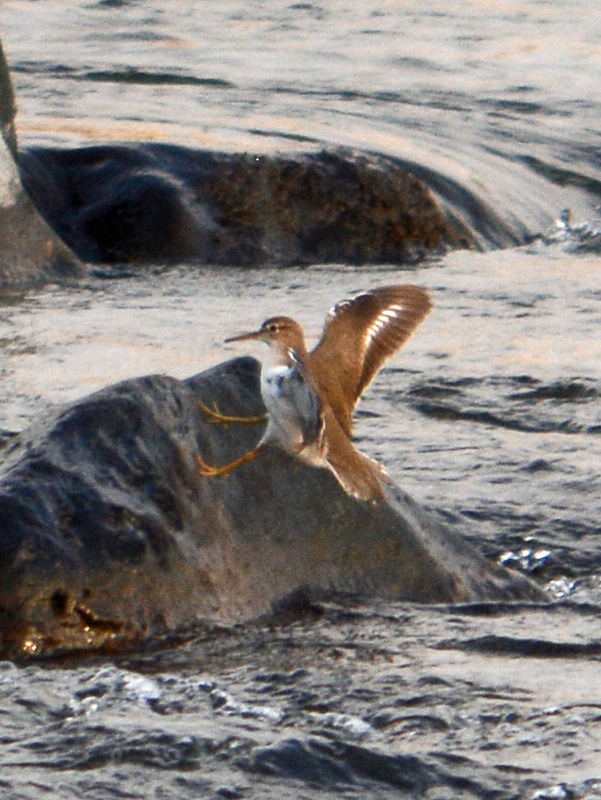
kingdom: Animalia
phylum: Chordata
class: Aves
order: Charadriiformes
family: Scolopacidae
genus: Actitis
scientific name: Actitis macularius
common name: Spotted sandpiper
